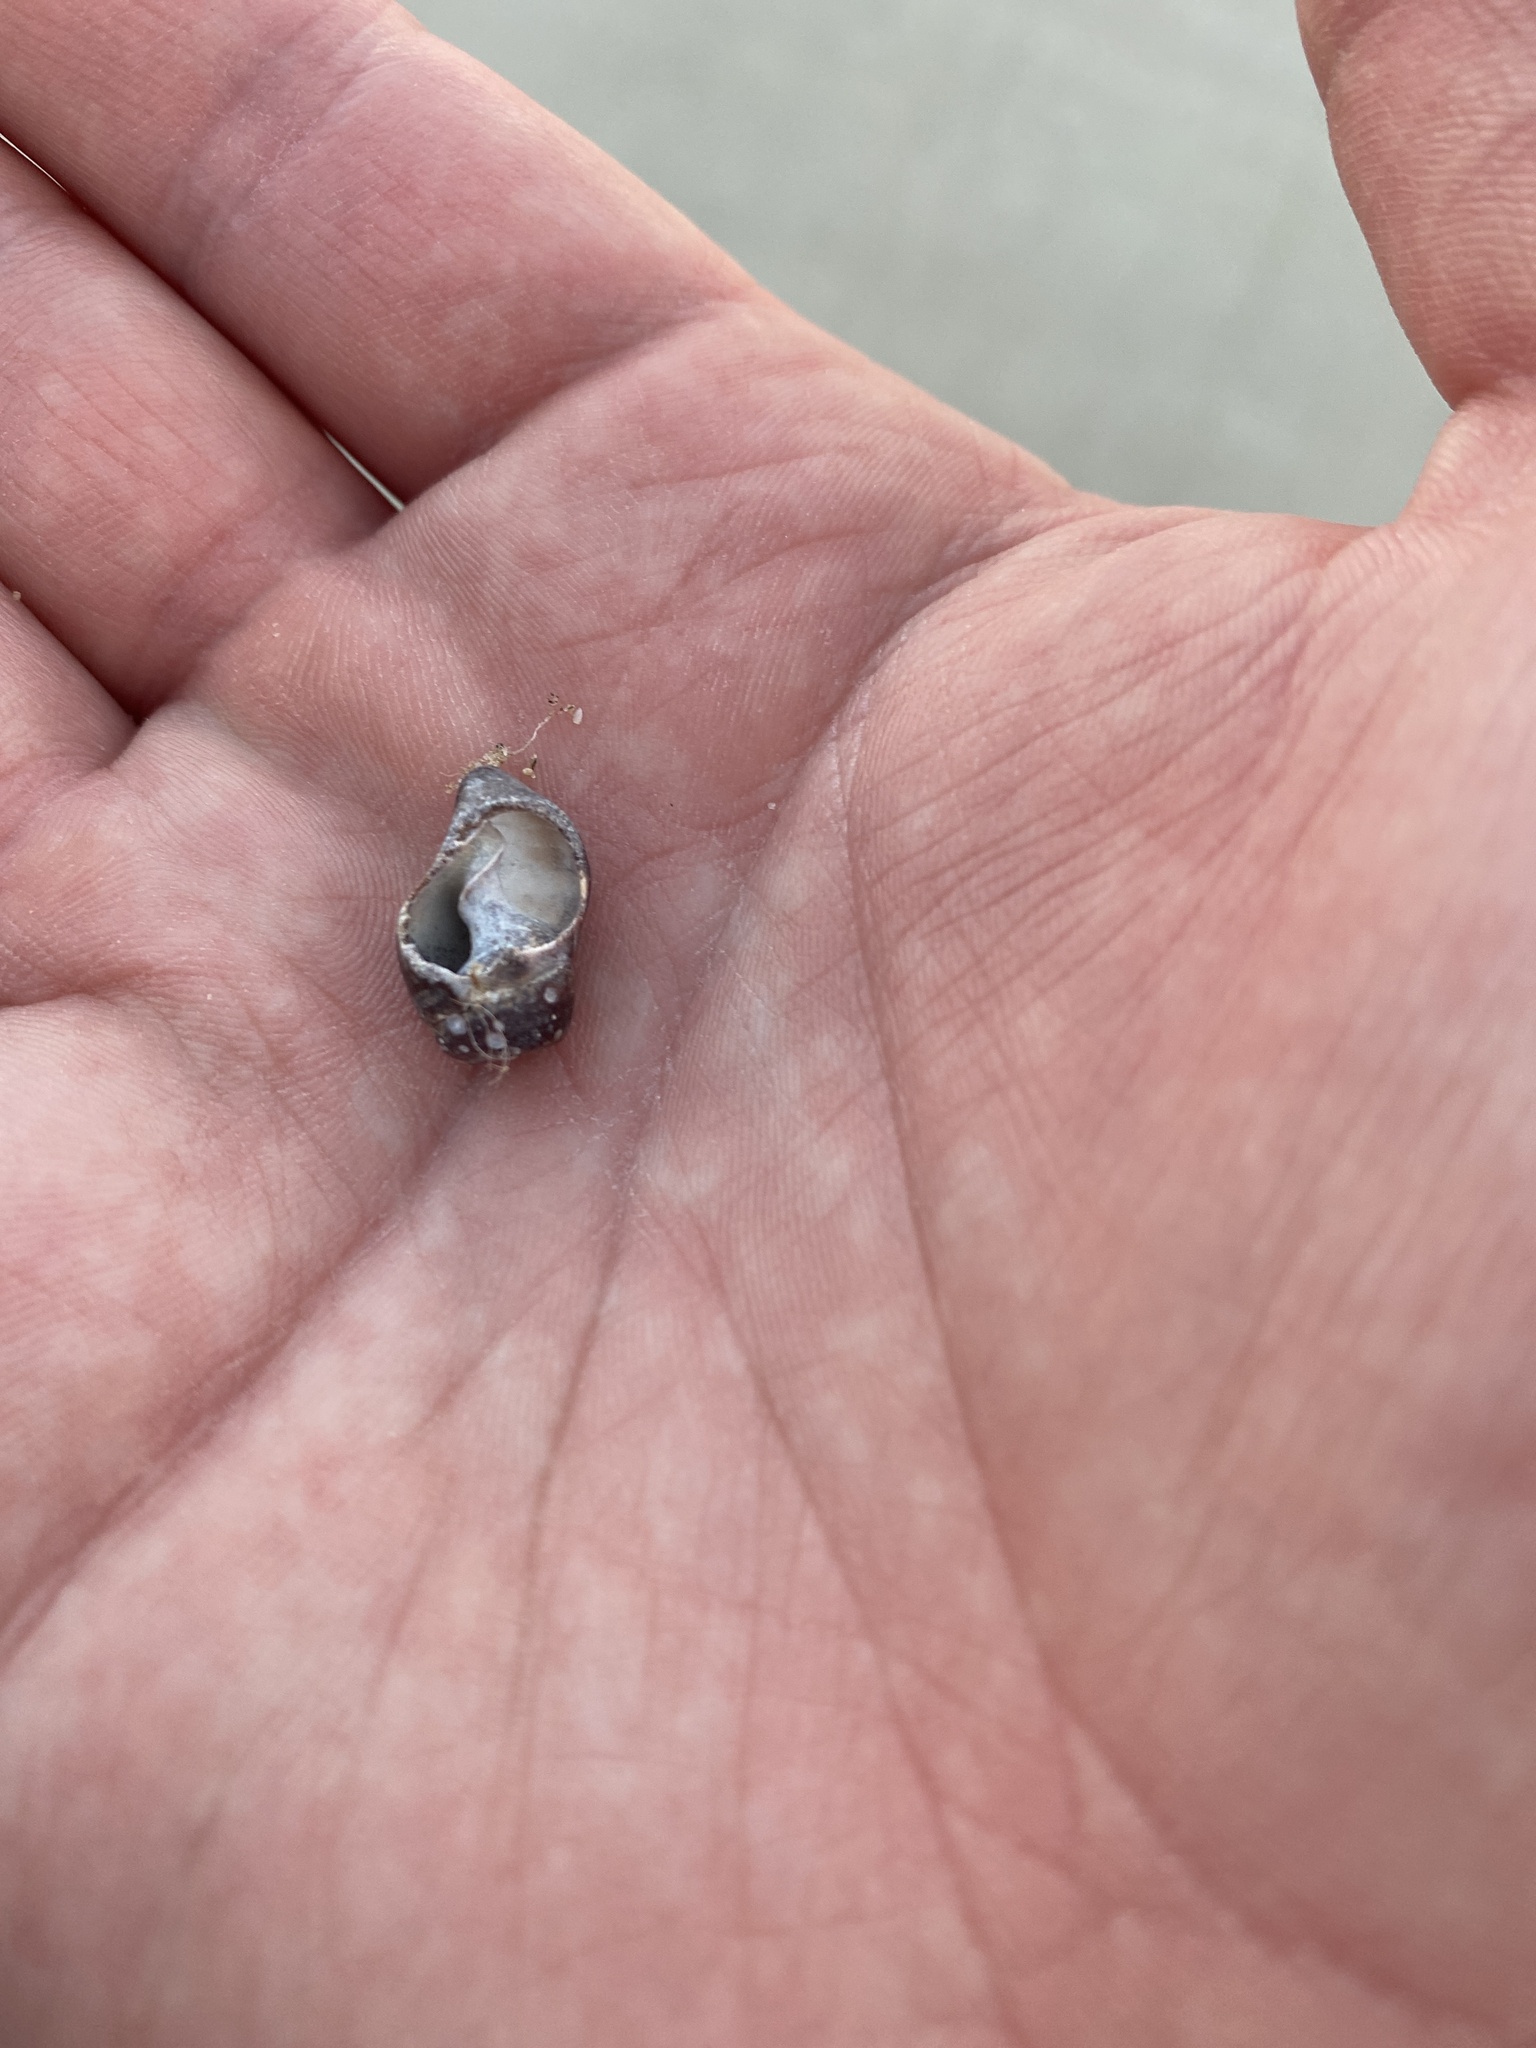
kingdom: Animalia
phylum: Mollusca
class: Gastropoda
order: Neogastropoda
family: Nassariidae
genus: Ilyanassa
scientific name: Ilyanassa obsoleta
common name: Eastern mudsnail
